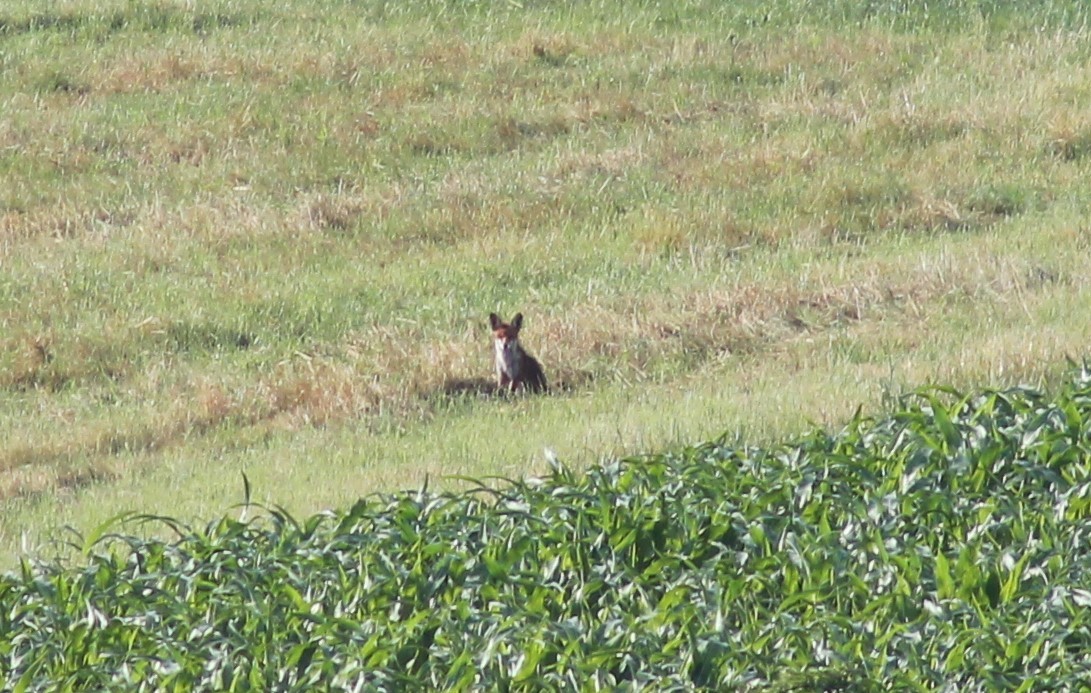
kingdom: Animalia
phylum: Chordata
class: Mammalia
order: Carnivora
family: Canidae
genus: Vulpes
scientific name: Vulpes vulpes
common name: Red fox
